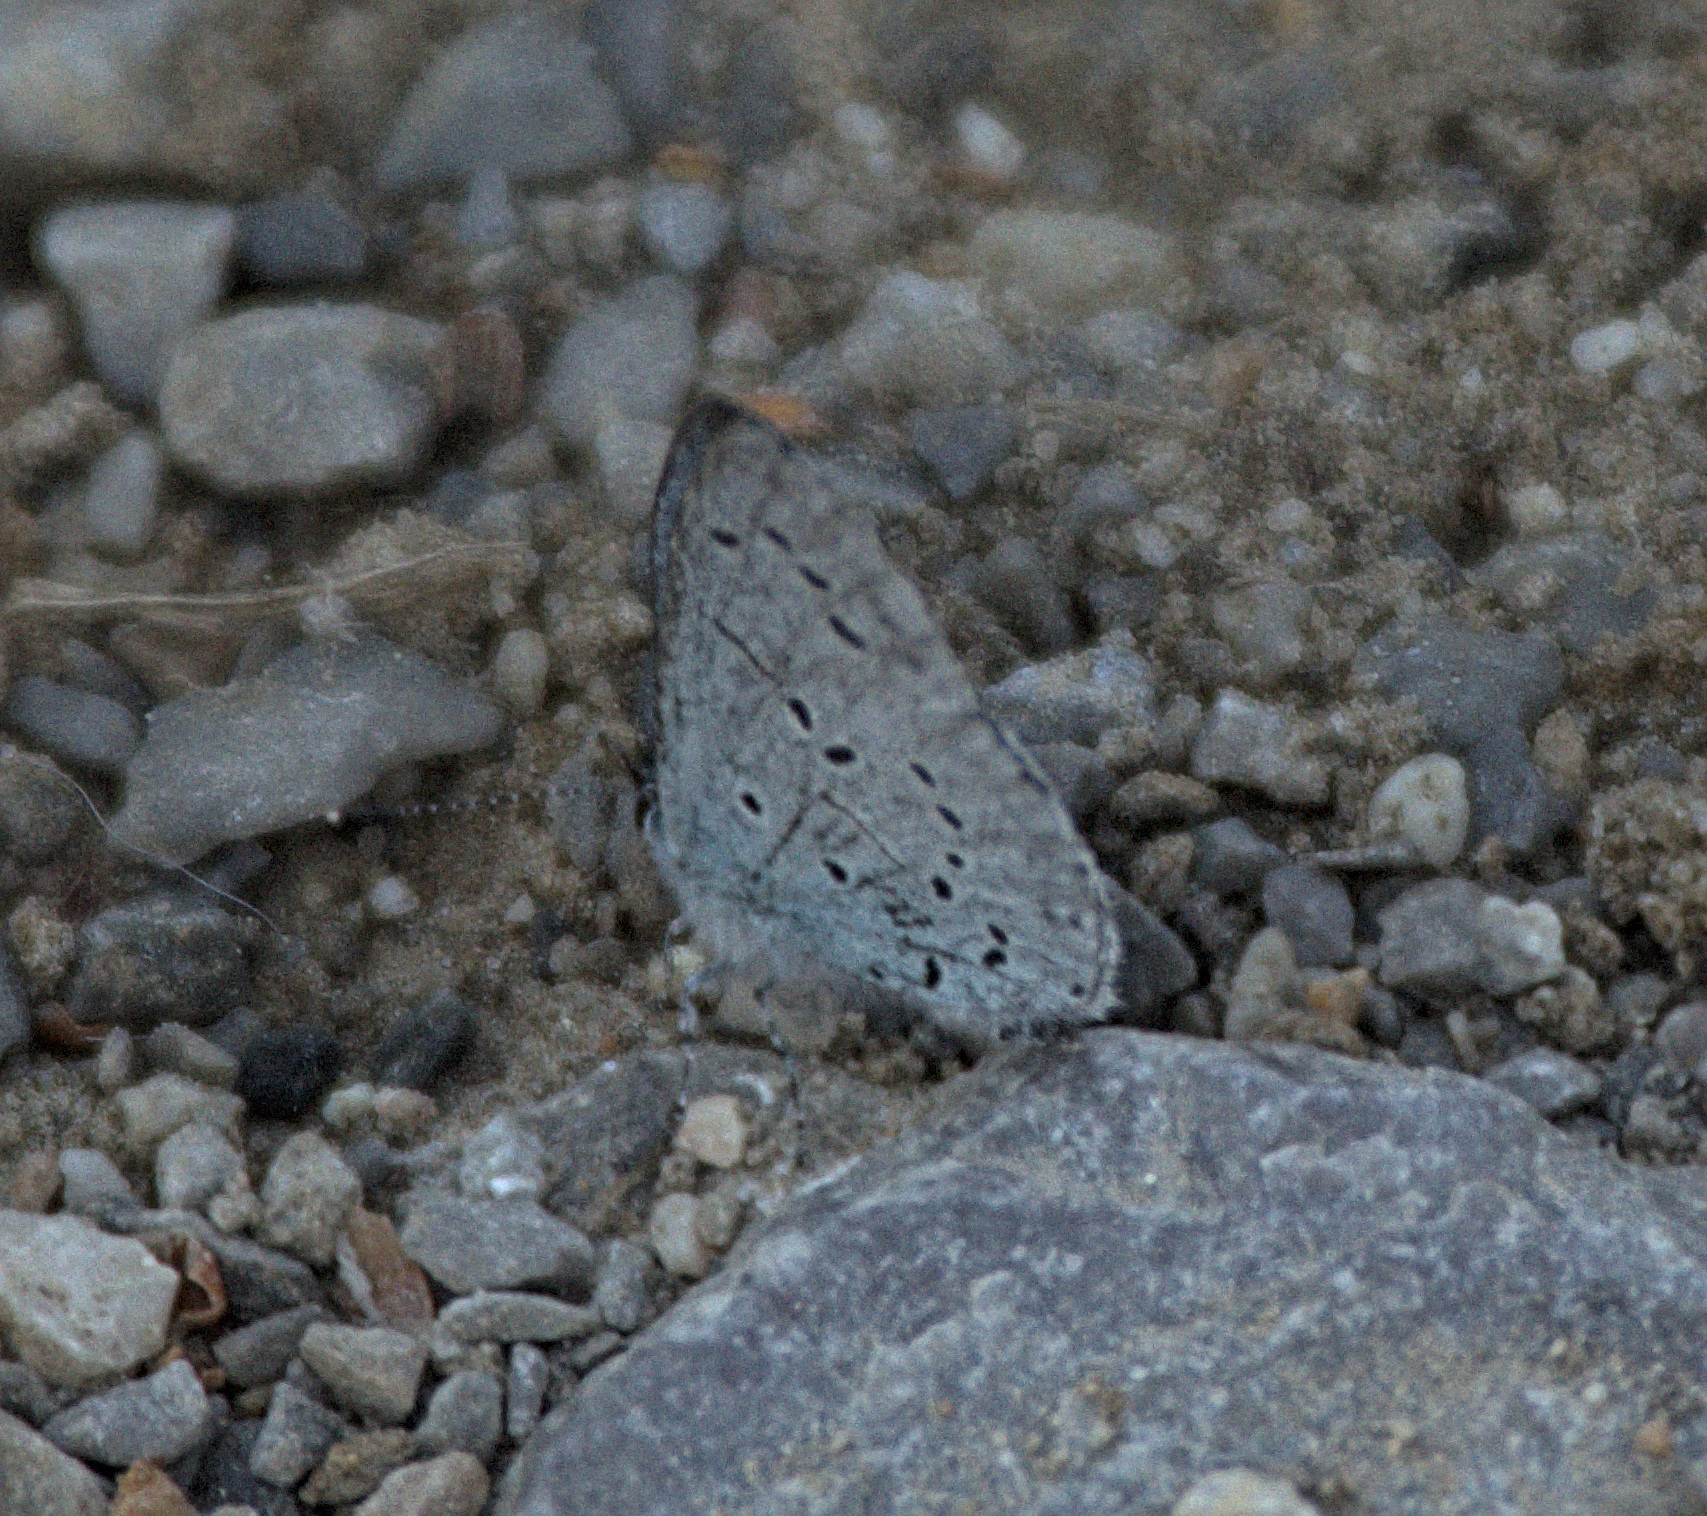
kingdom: Animalia
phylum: Arthropoda
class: Insecta
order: Lepidoptera
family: Lycaenidae
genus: Celastrina
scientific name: Celastrina argiolus
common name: Holly blue
